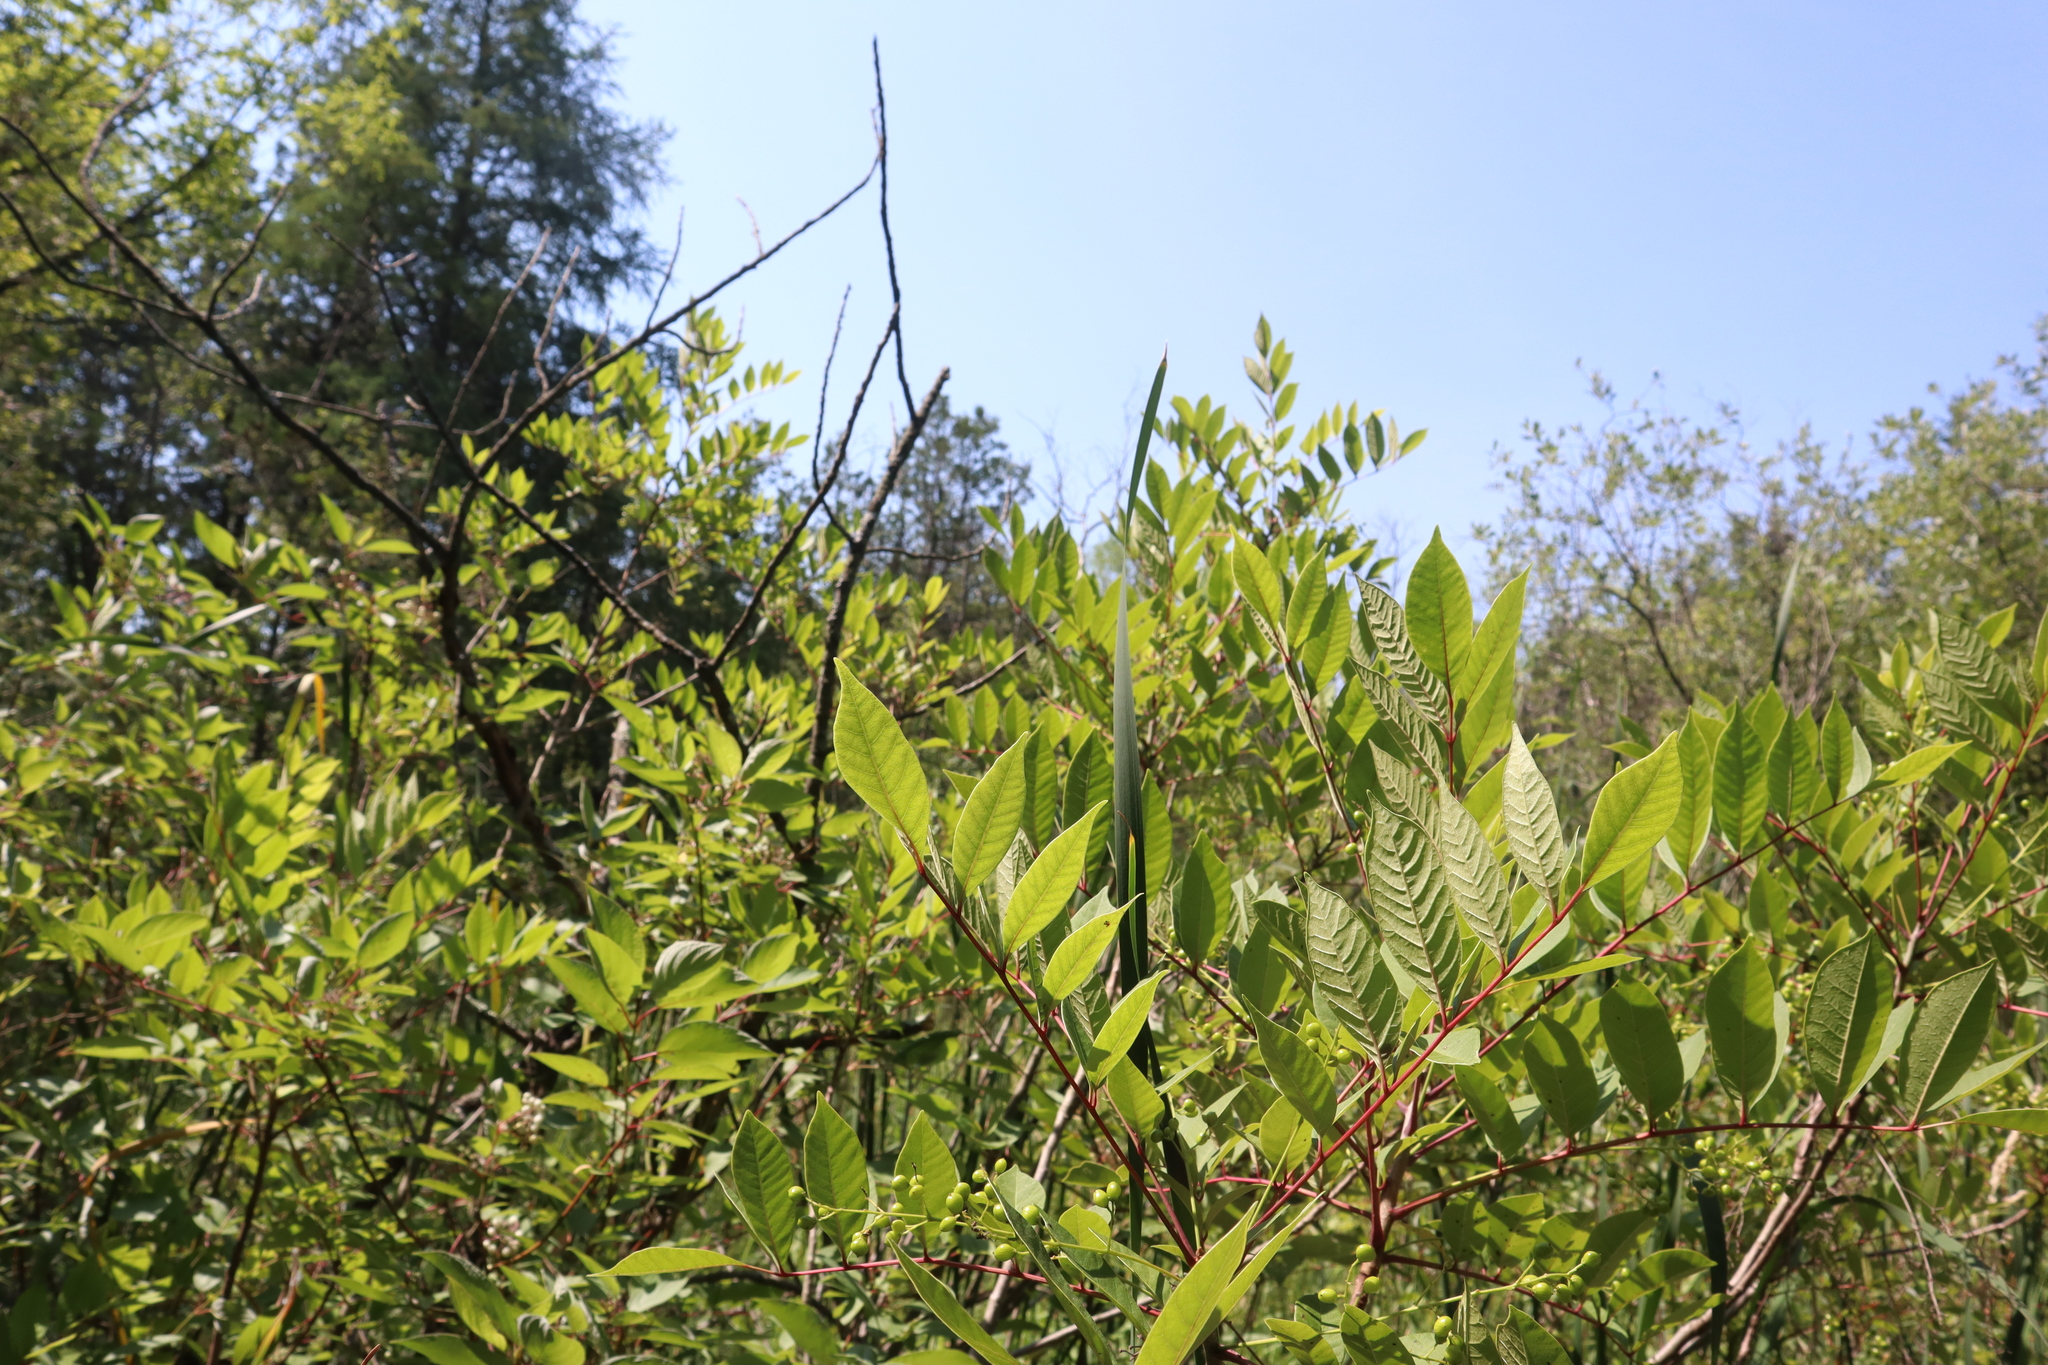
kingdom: Plantae
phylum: Tracheophyta
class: Magnoliopsida
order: Sapindales
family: Anacardiaceae
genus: Toxicodendron
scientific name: Toxicodendron vernix
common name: Poison sumac
